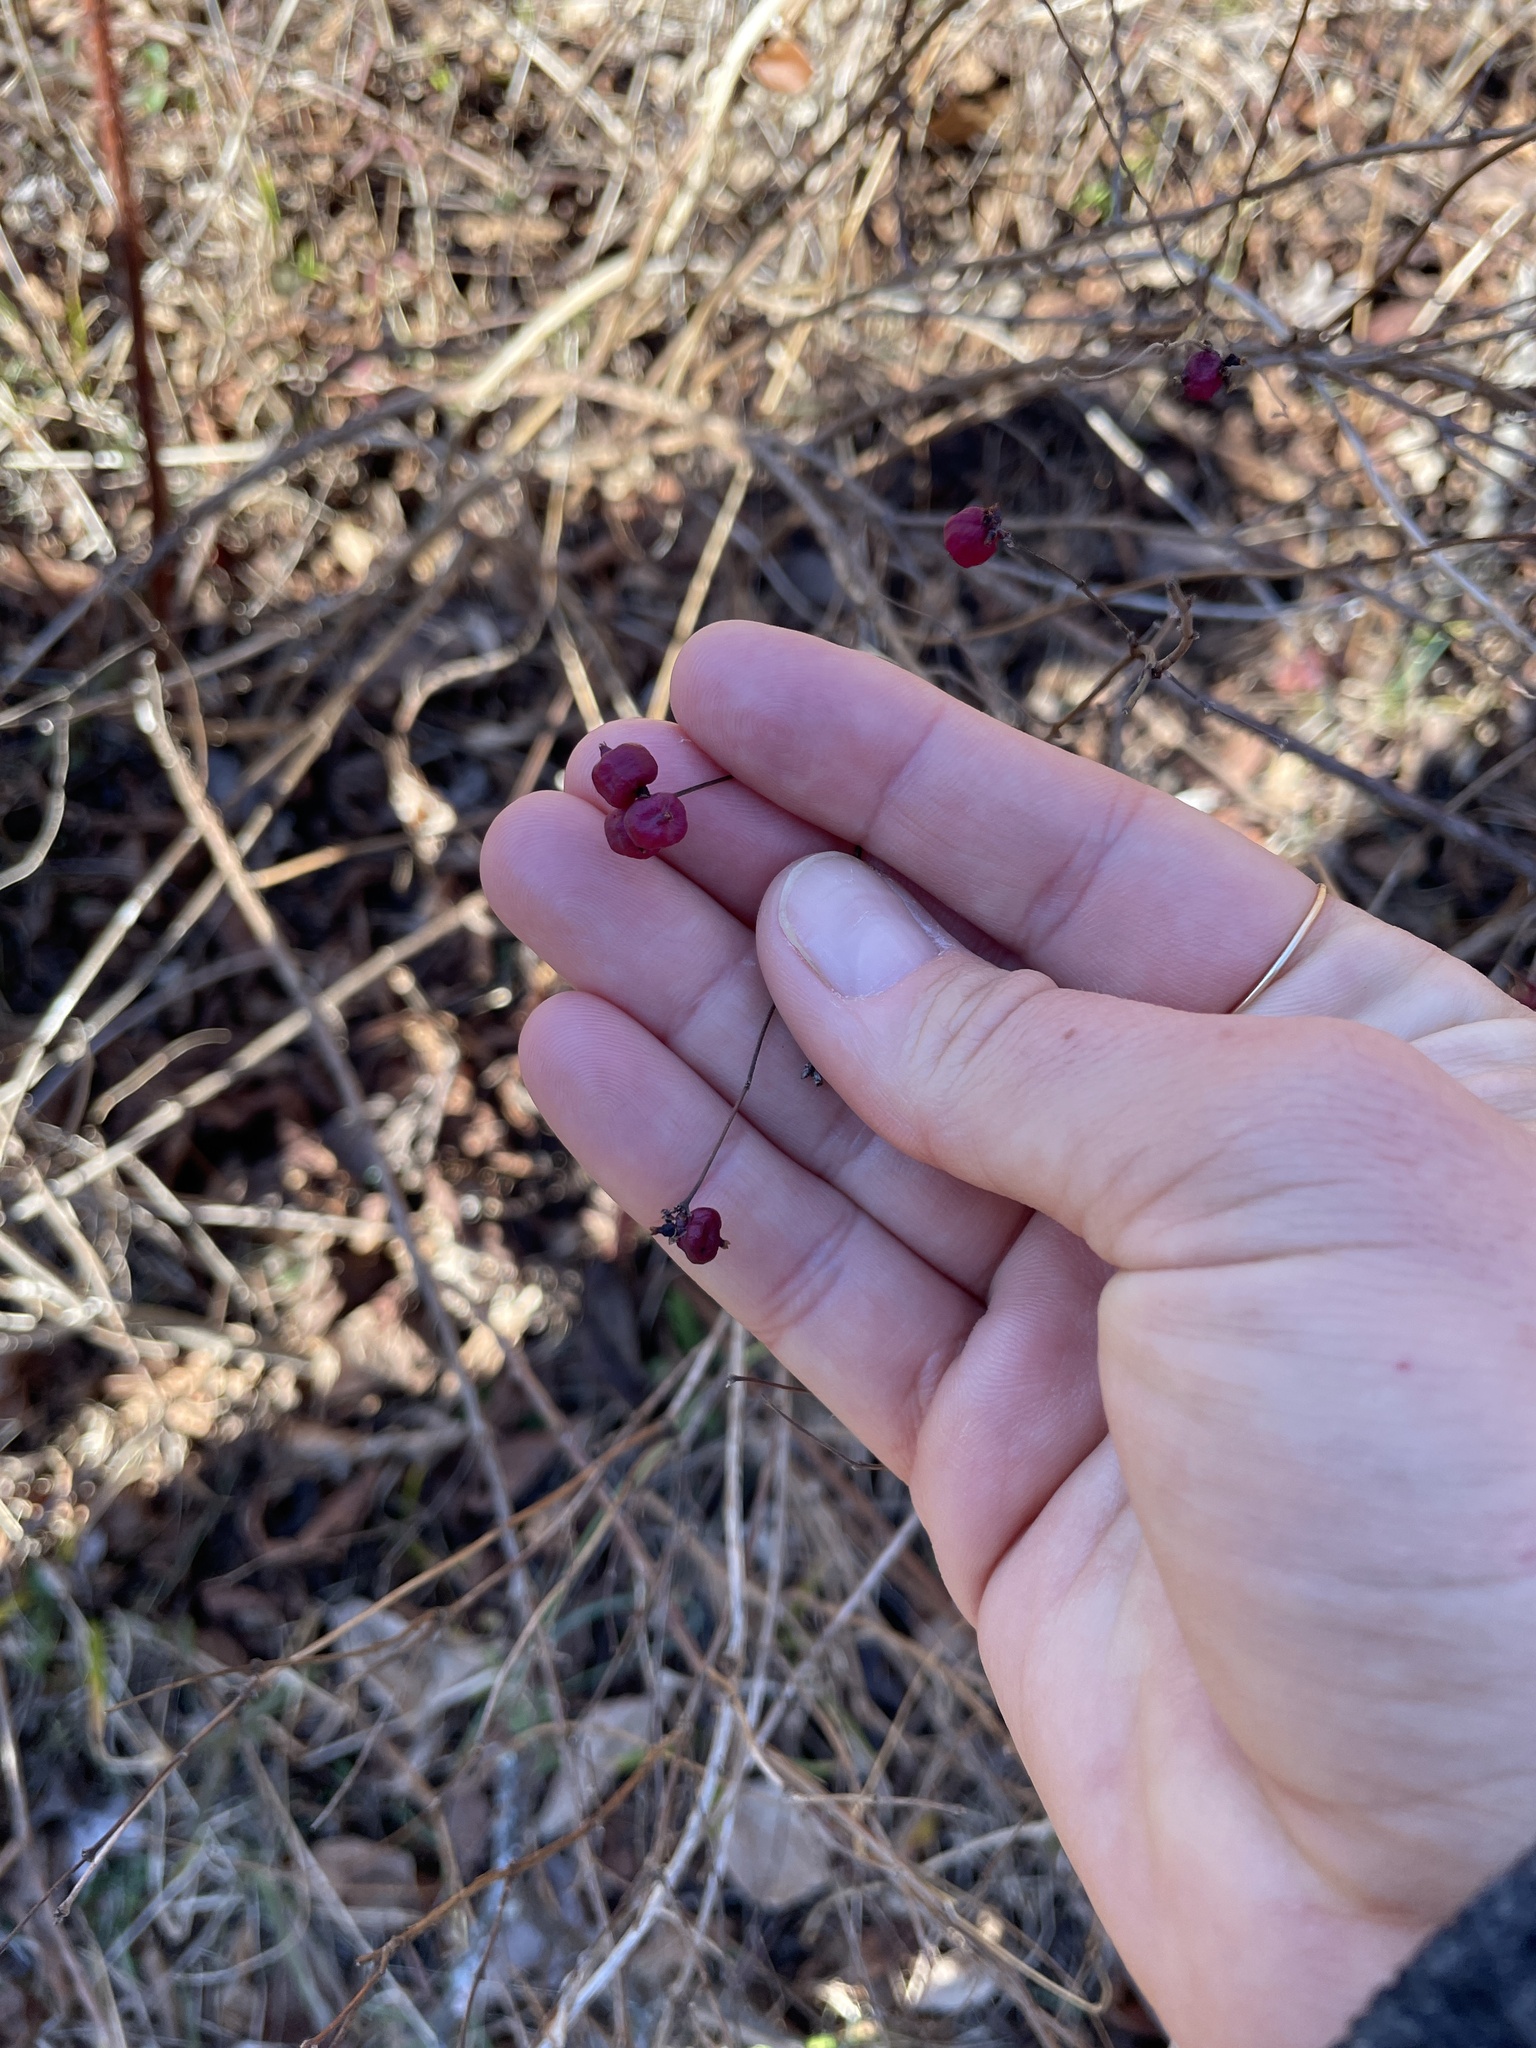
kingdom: Plantae
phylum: Tracheophyta
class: Magnoliopsida
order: Dipsacales
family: Caprifoliaceae
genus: Symphoricarpos
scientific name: Symphoricarpos orbiculatus
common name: Coralberry
